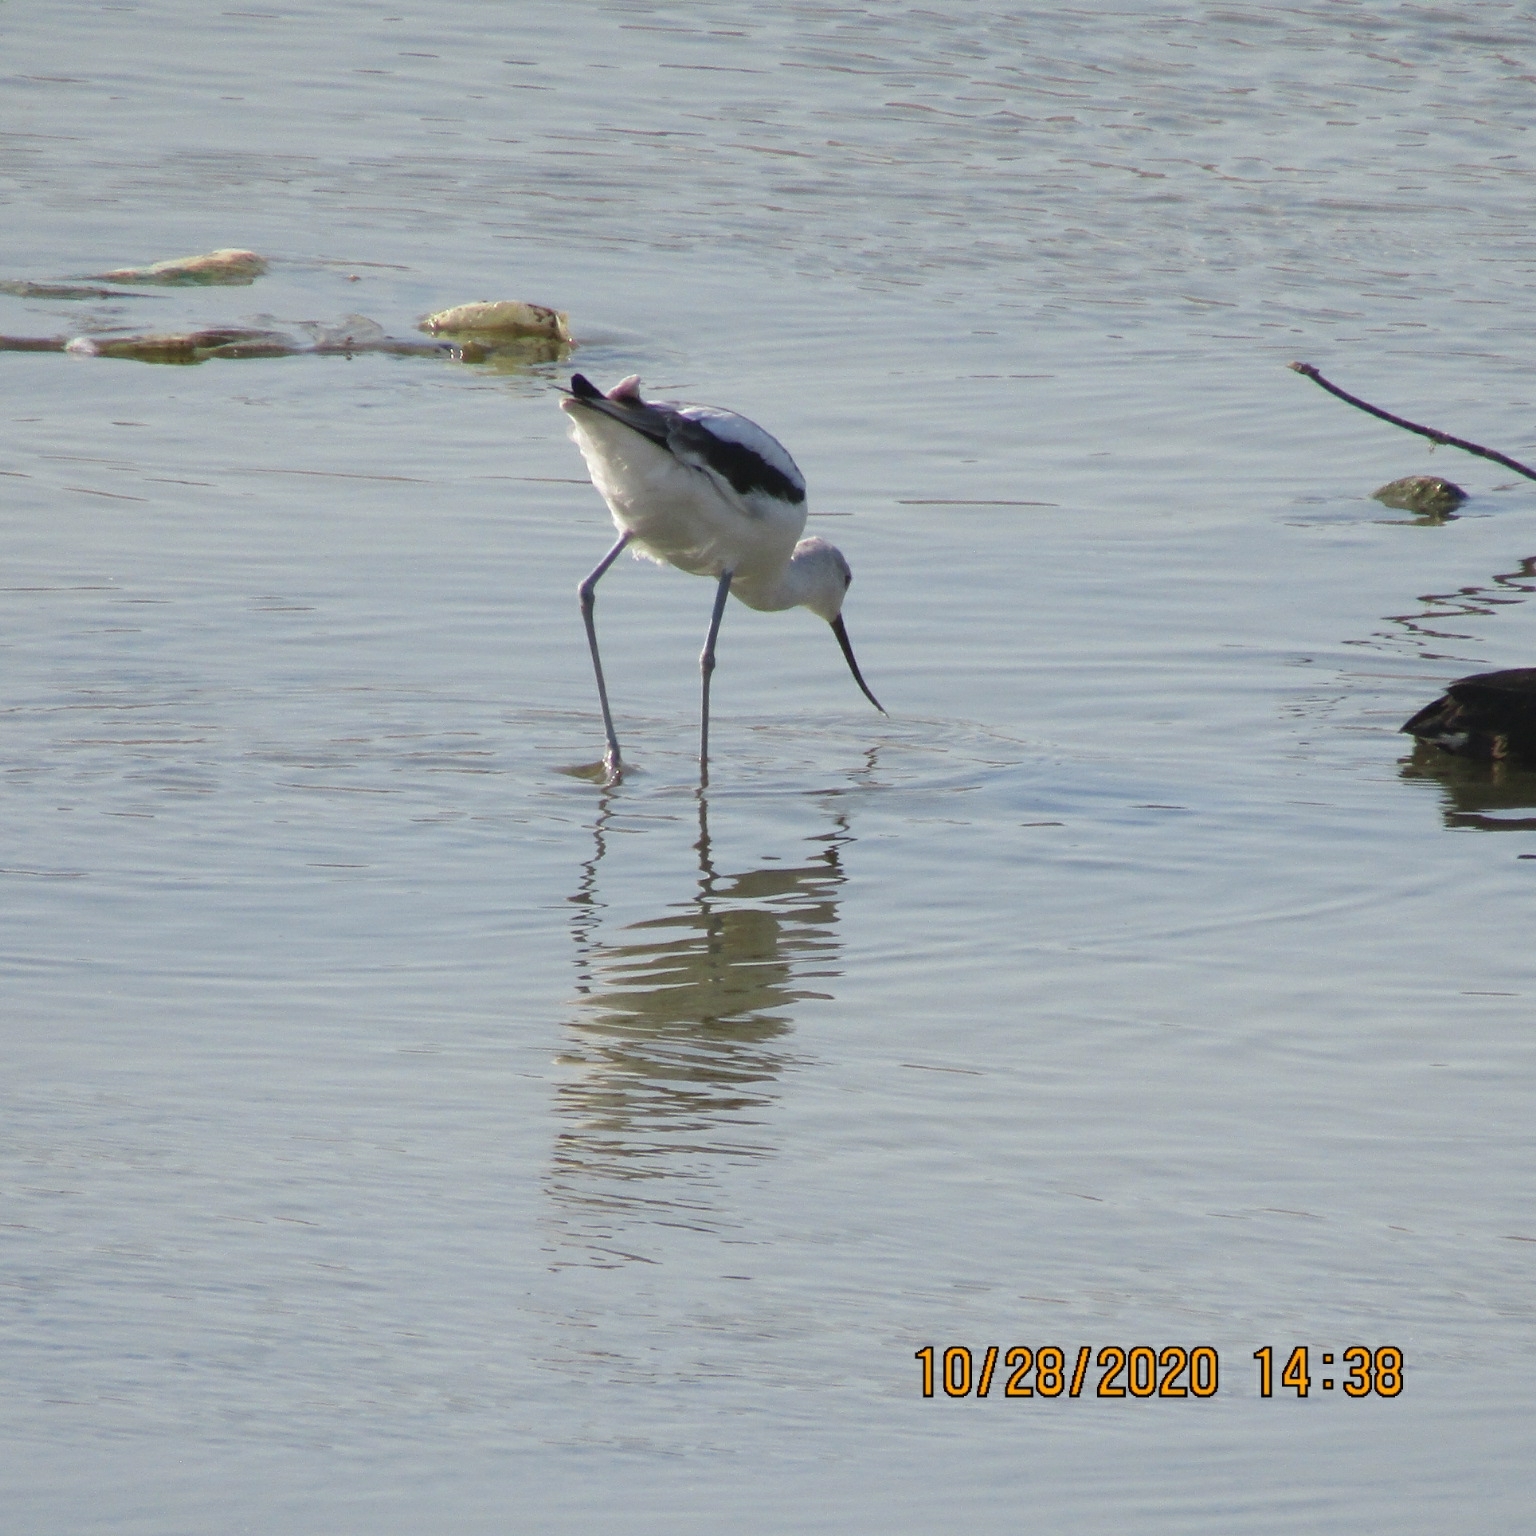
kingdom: Animalia
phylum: Chordata
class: Aves
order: Charadriiformes
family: Recurvirostridae
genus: Recurvirostra
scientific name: Recurvirostra americana
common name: American avocet
